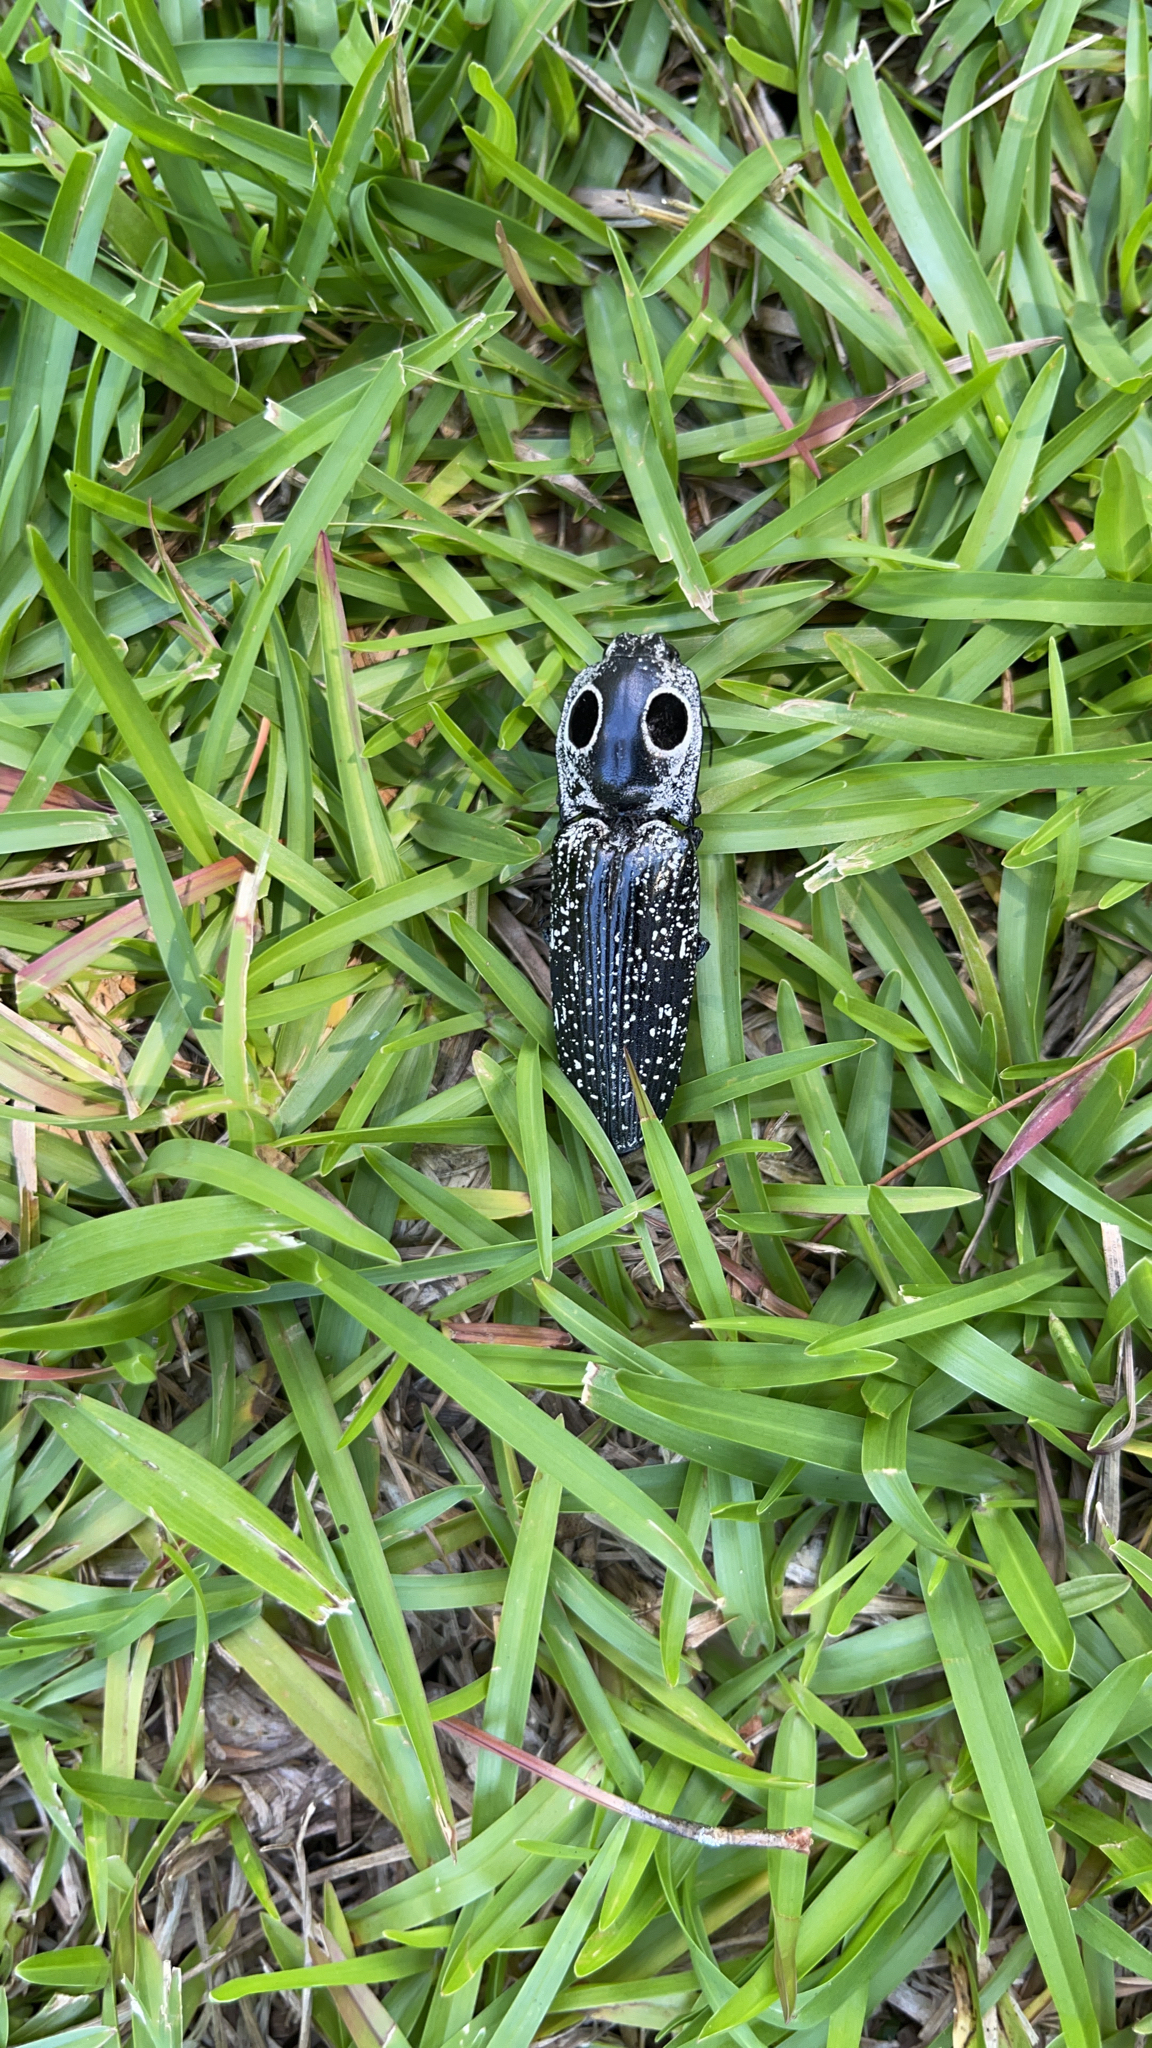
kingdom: Animalia
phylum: Arthropoda
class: Insecta
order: Coleoptera
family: Elateridae
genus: Alaus
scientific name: Alaus oculatus
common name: Eastern eyed click beetle
